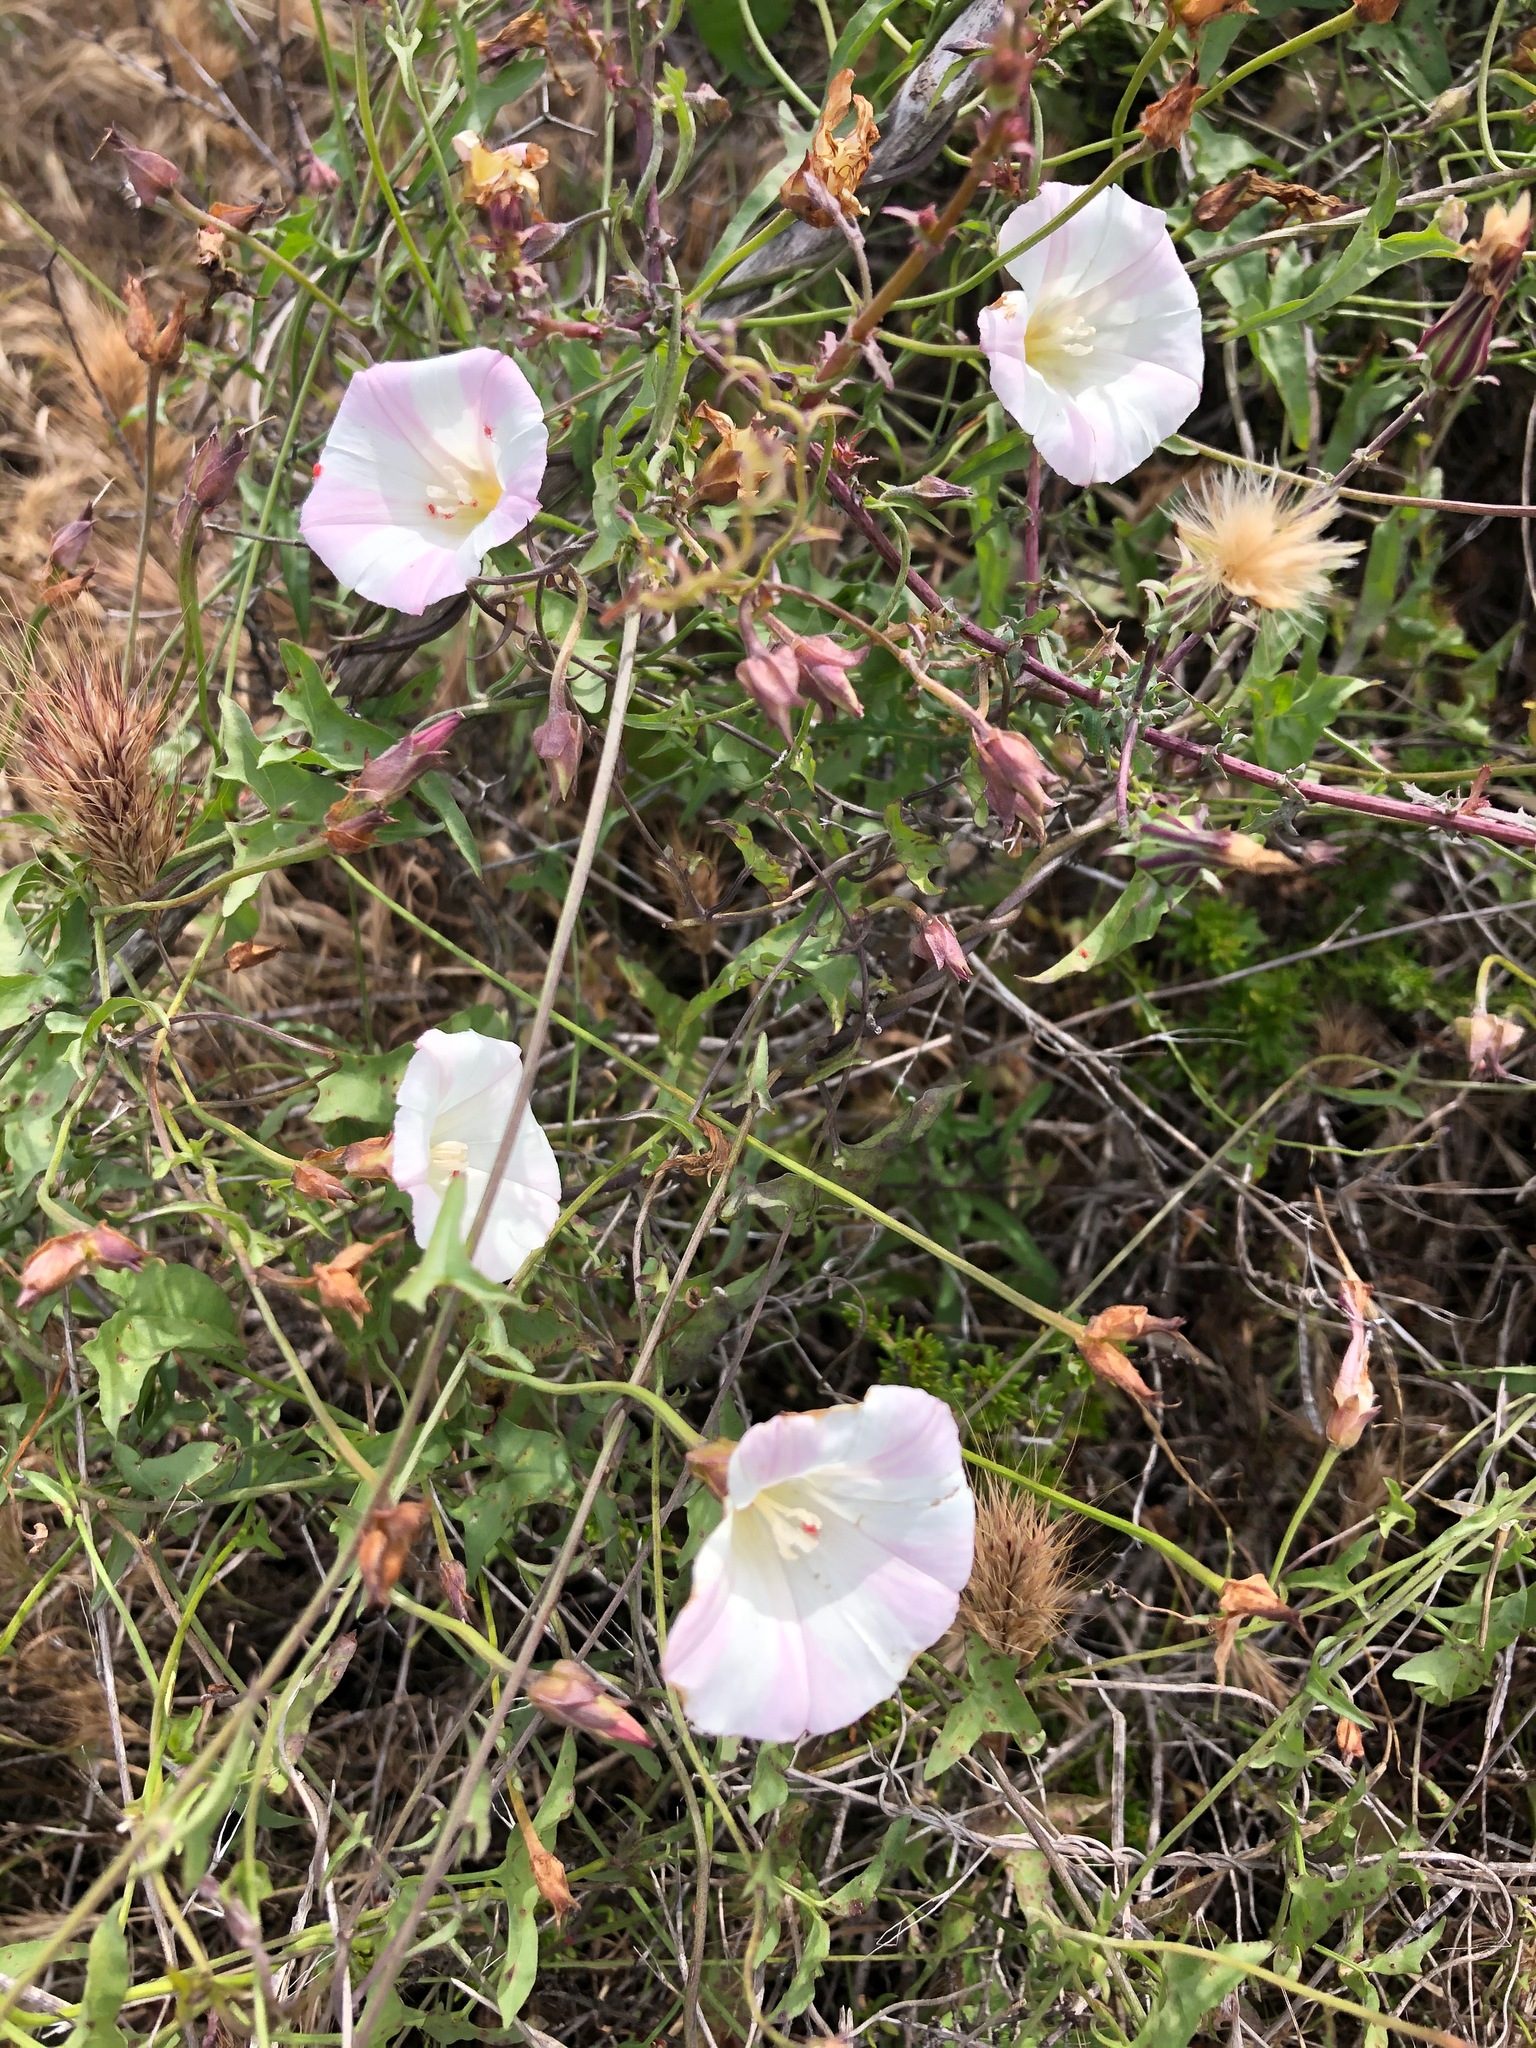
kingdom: Plantae
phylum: Tracheophyta
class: Magnoliopsida
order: Solanales
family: Convolvulaceae
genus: Calystegia
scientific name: Calystegia macrostegia
